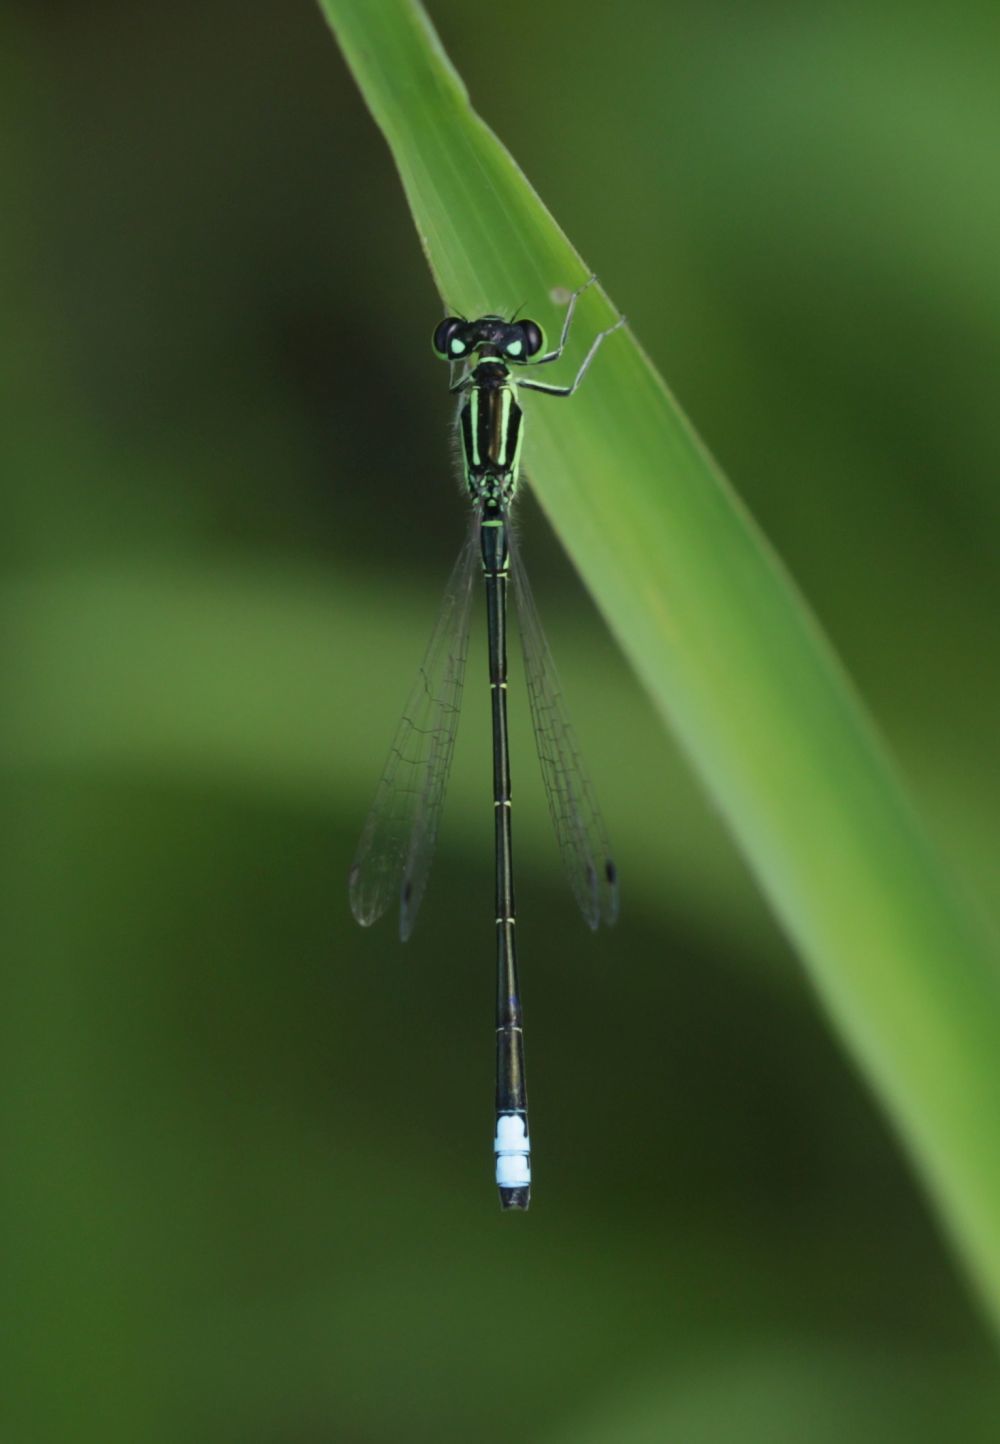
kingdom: Animalia
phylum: Arthropoda
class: Insecta
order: Odonata
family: Coenagrionidae
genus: Ischnura
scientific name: Ischnura verticalis
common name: Eastern forktail
